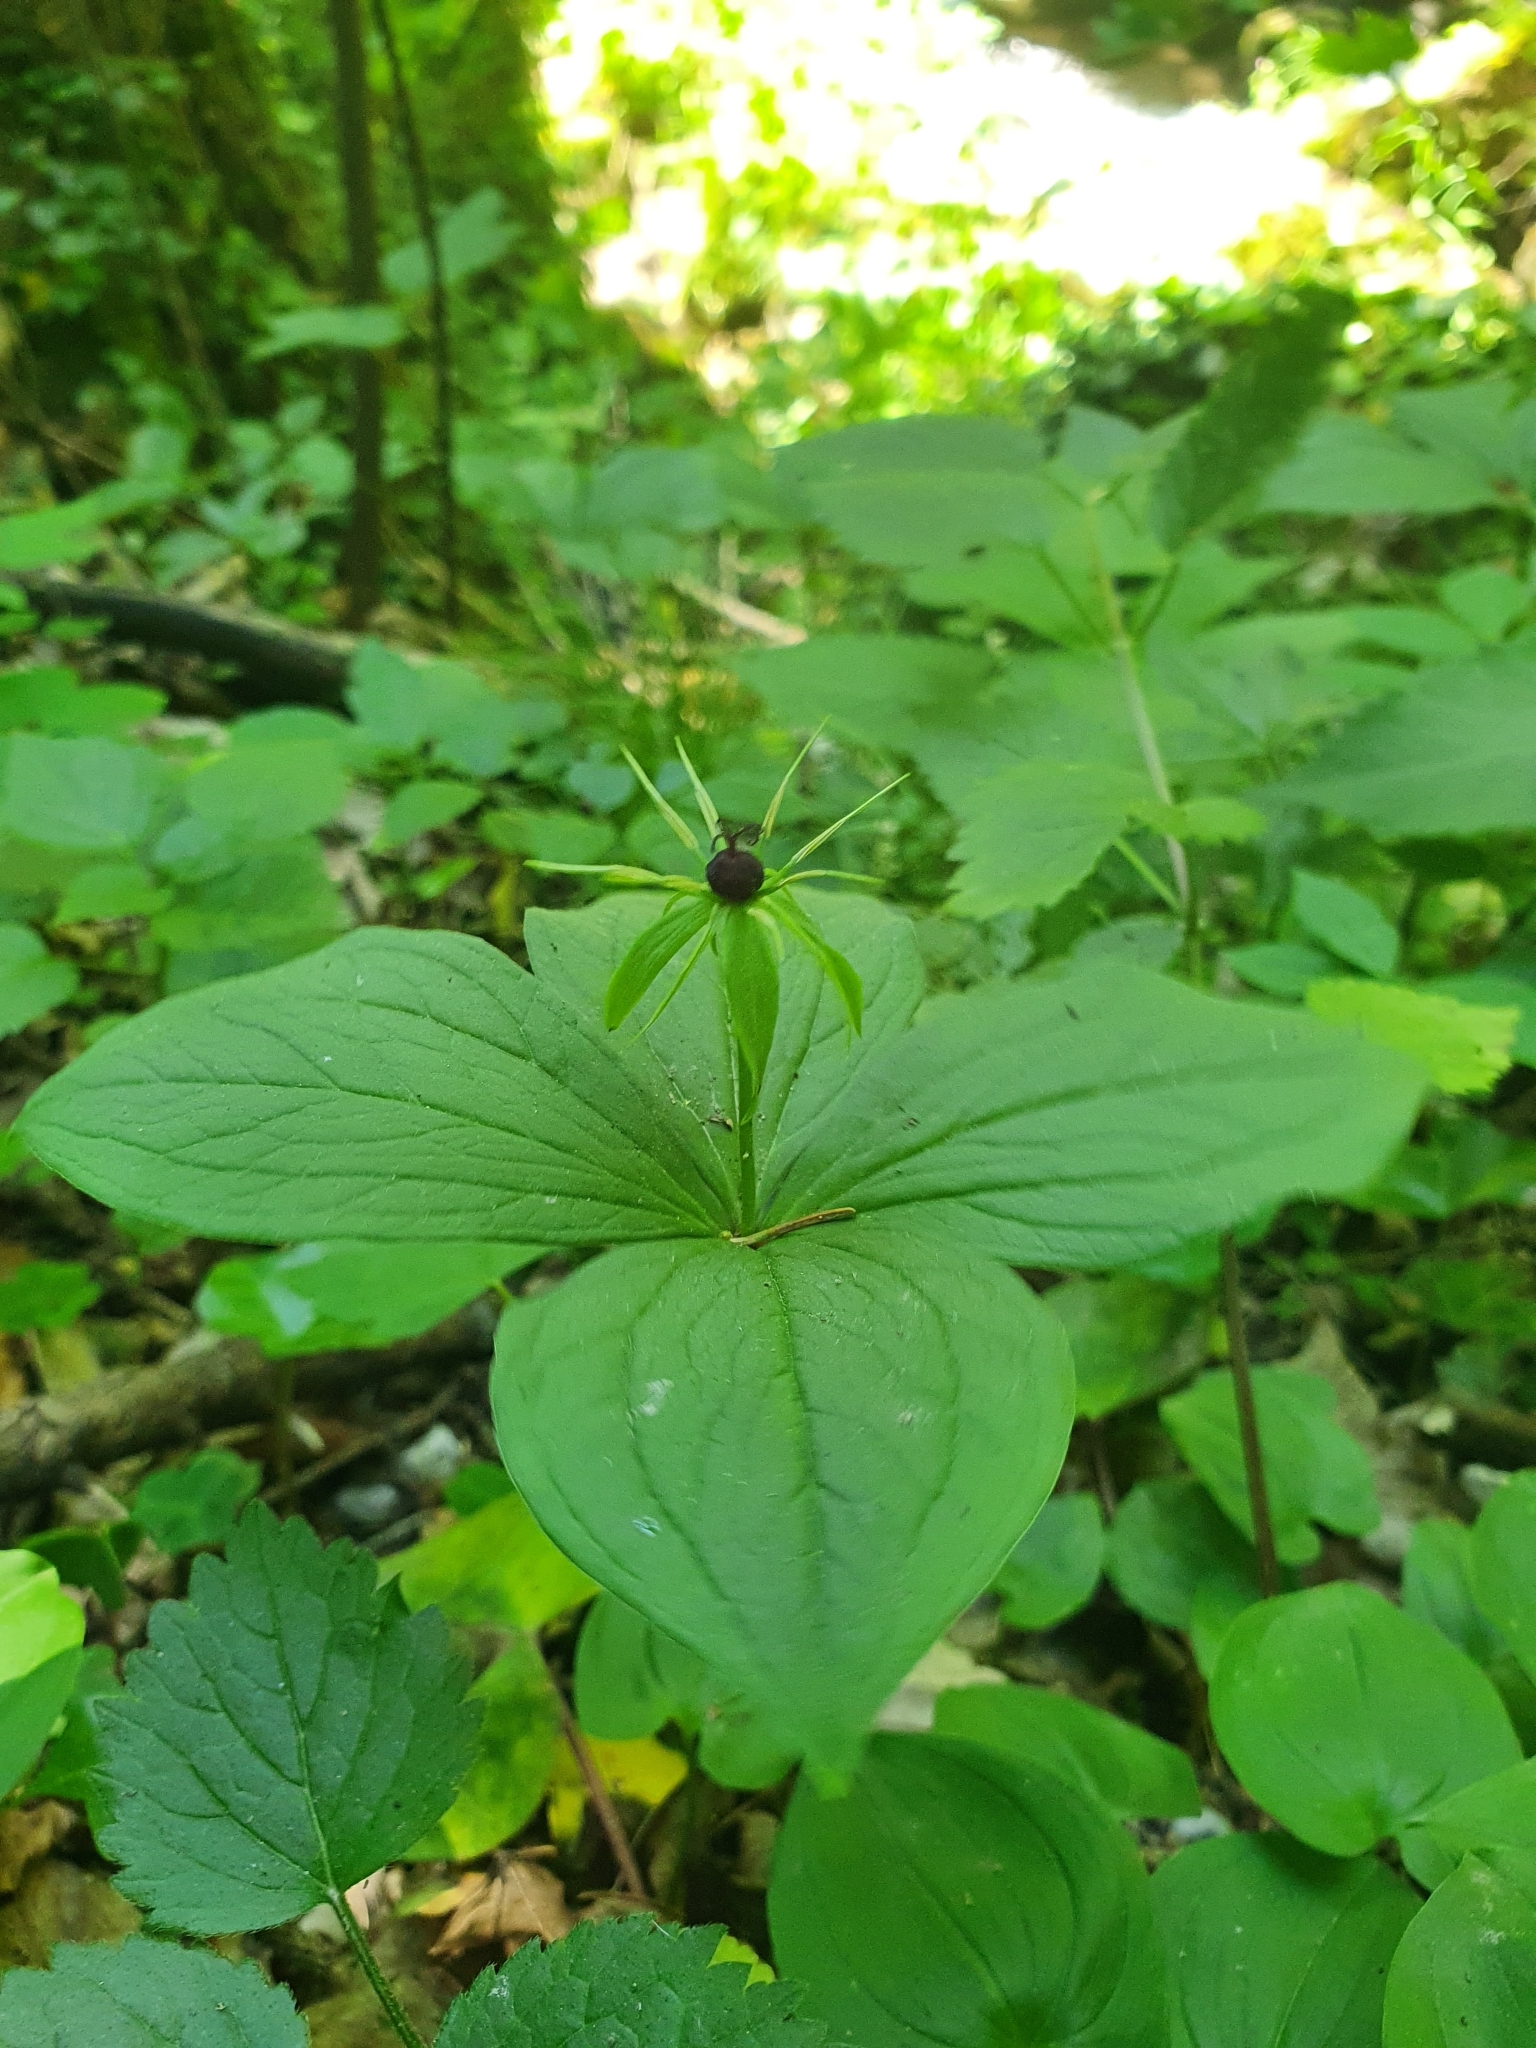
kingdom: Plantae
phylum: Tracheophyta
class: Liliopsida
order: Liliales
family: Melanthiaceae
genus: Paris
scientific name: Paris quadrifolia
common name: Herb-paris
